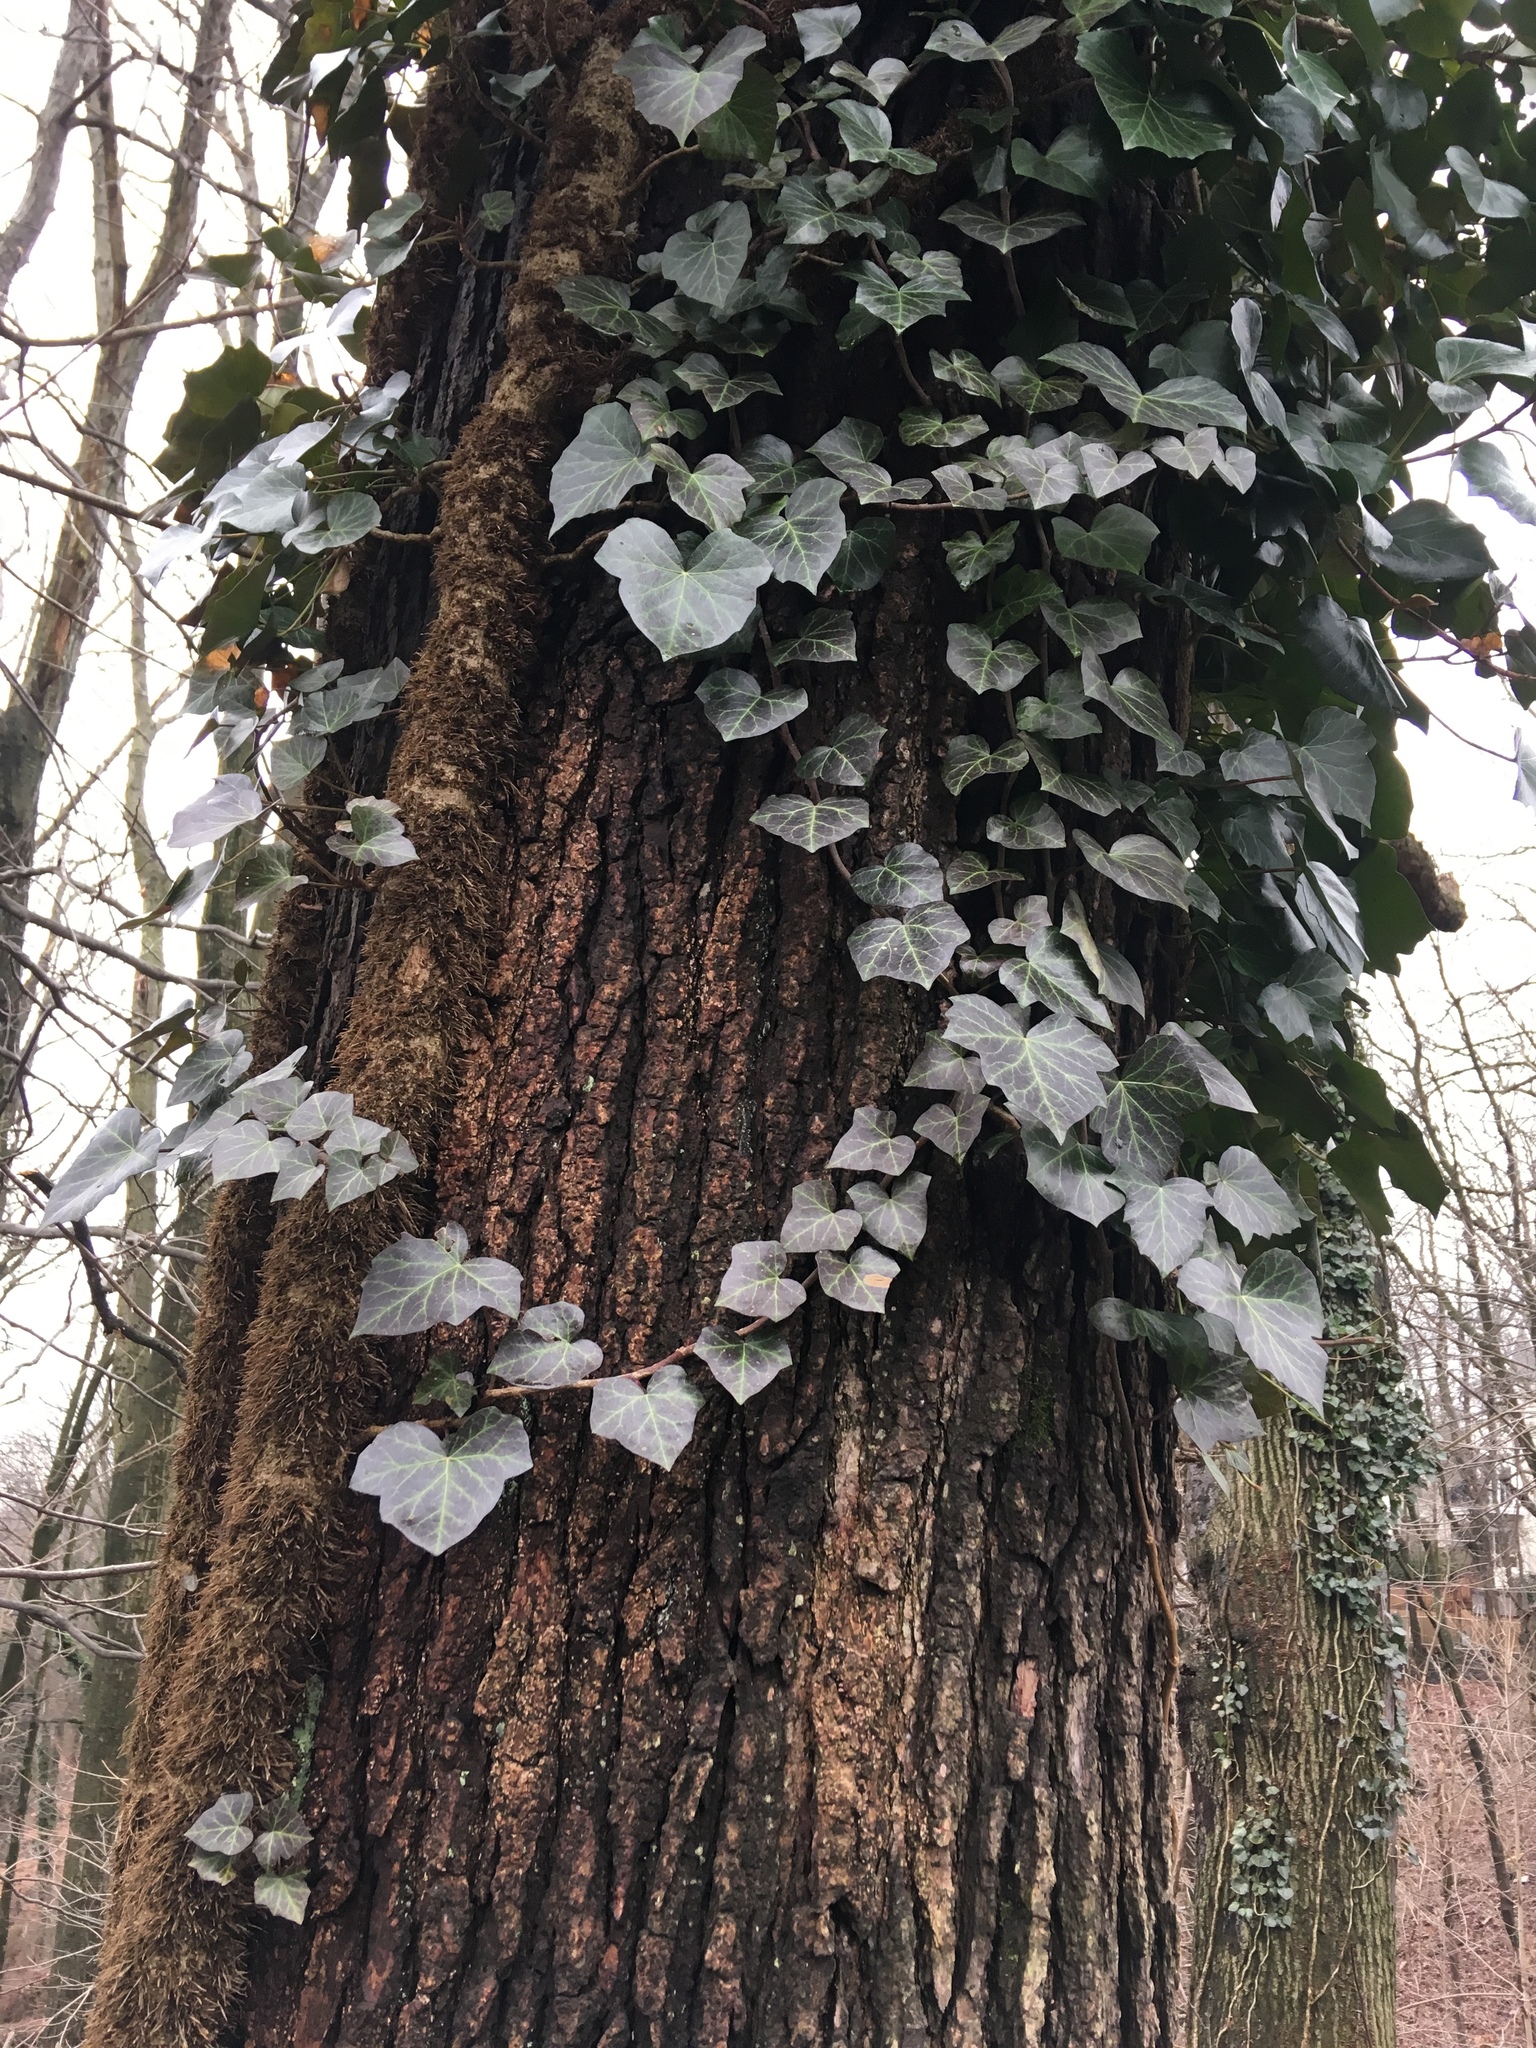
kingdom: Plantae
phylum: Tracheophyta
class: Magnoliopsida
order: Apiales
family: Araliaceae
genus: Hedera
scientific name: Hedera helix
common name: Ivy
